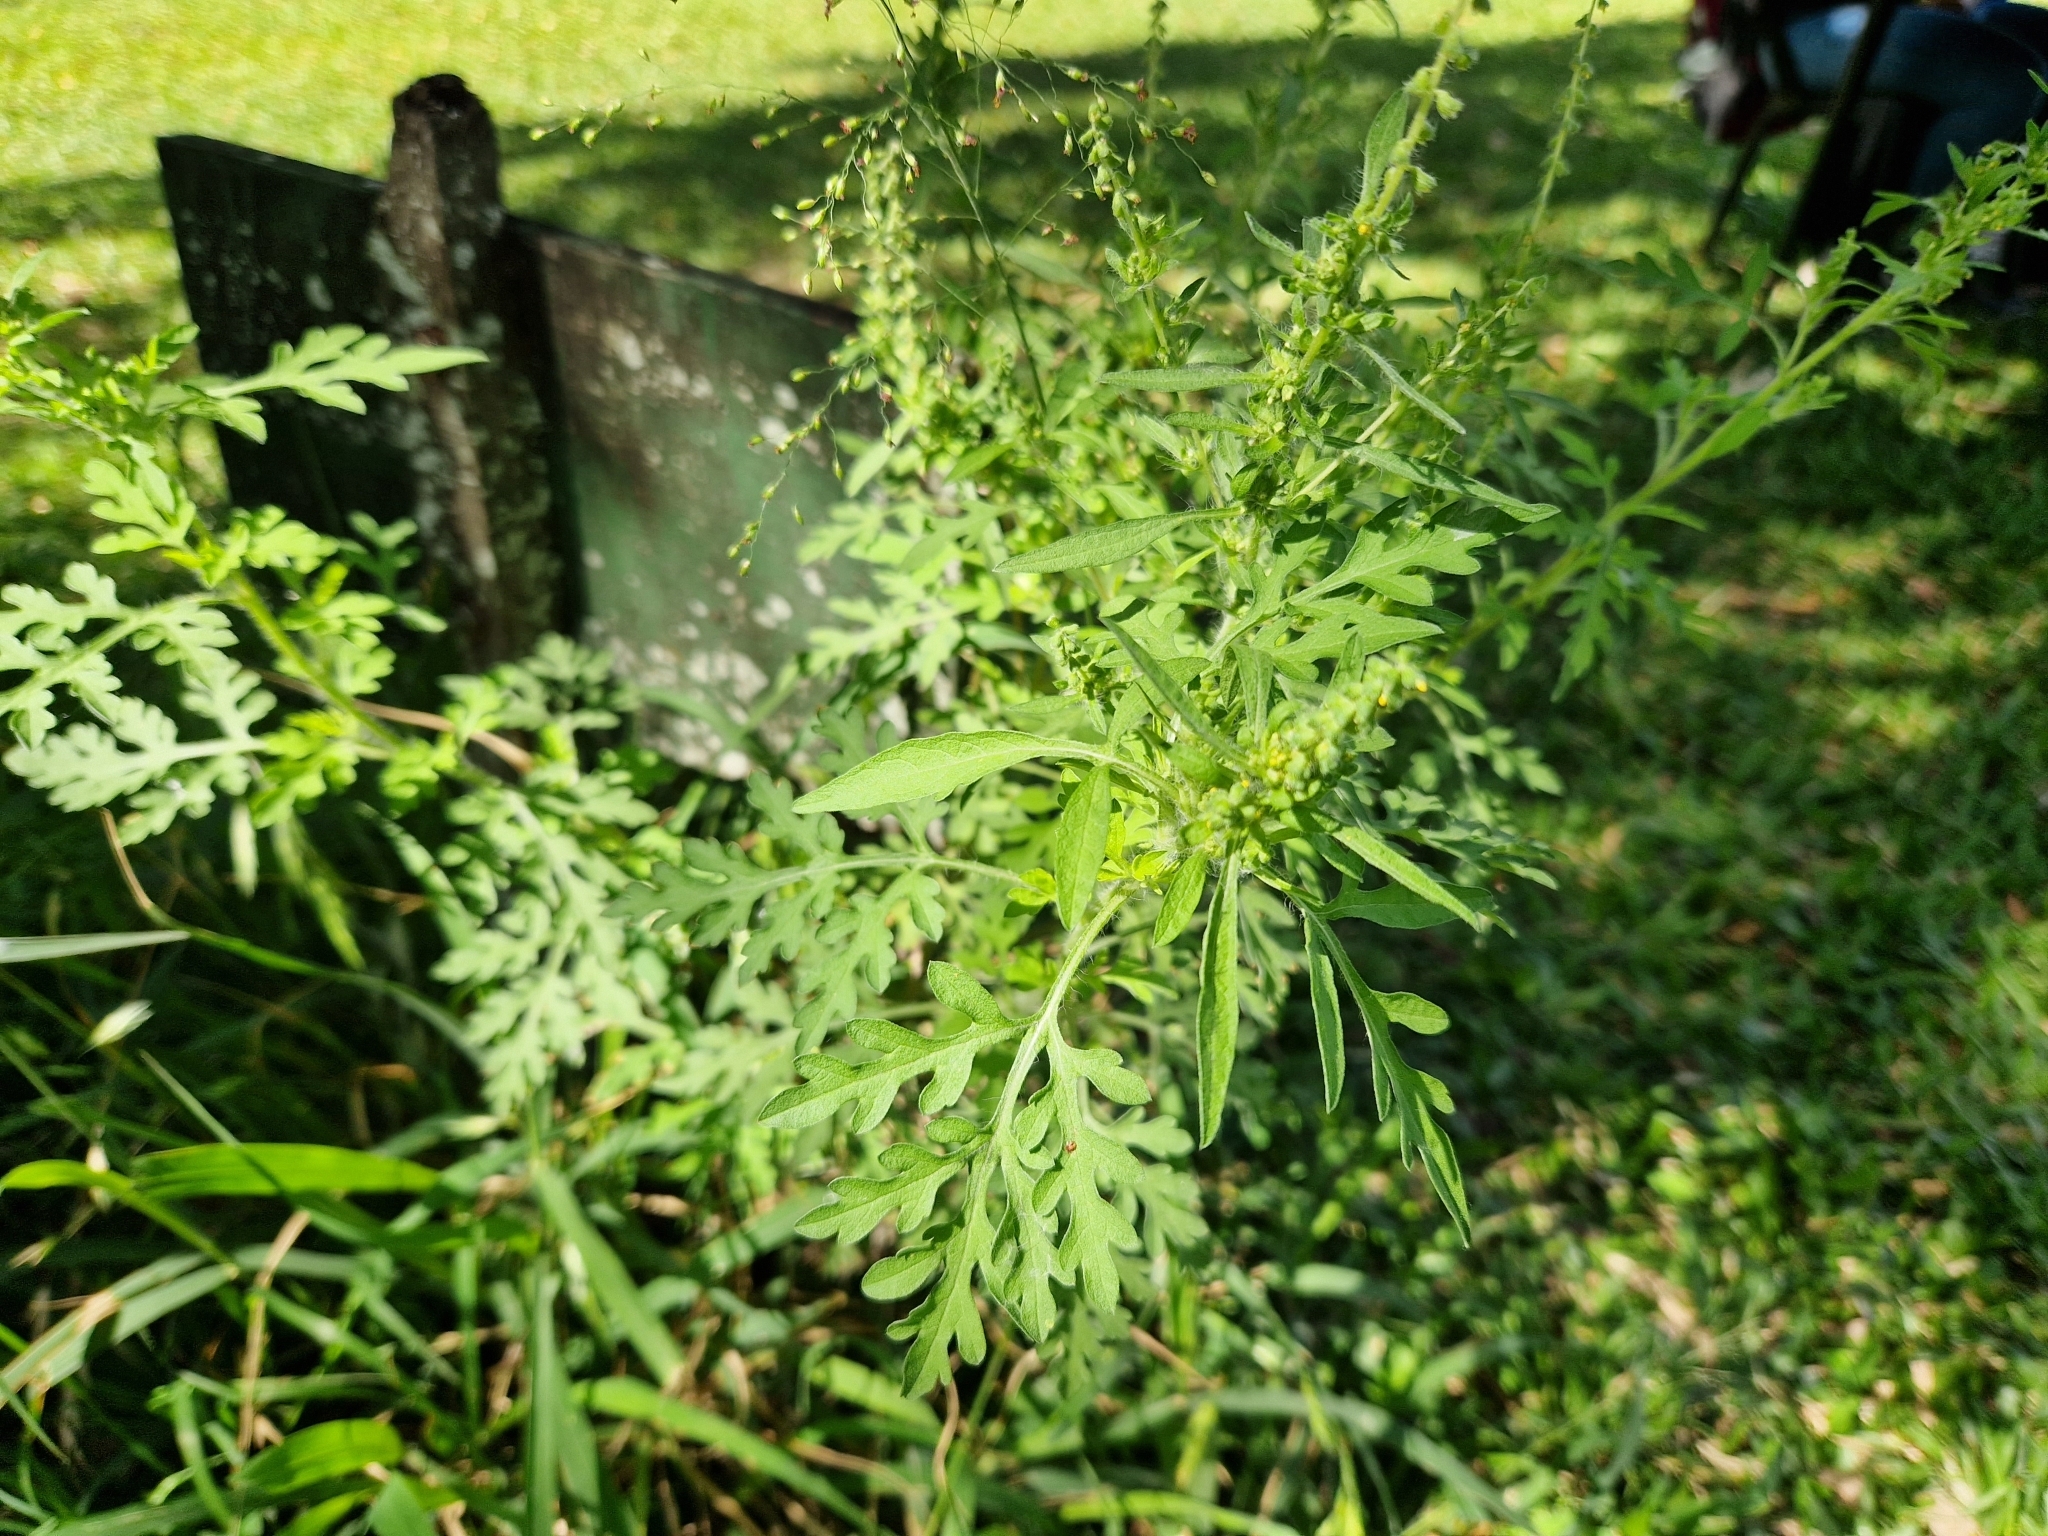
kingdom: Plantae
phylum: Tracheophyta
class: Magnoliopsida
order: Asterales
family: Asteraceae
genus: Ambrosia
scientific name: Ambrosia artemisiifolia
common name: Annual ragweed
